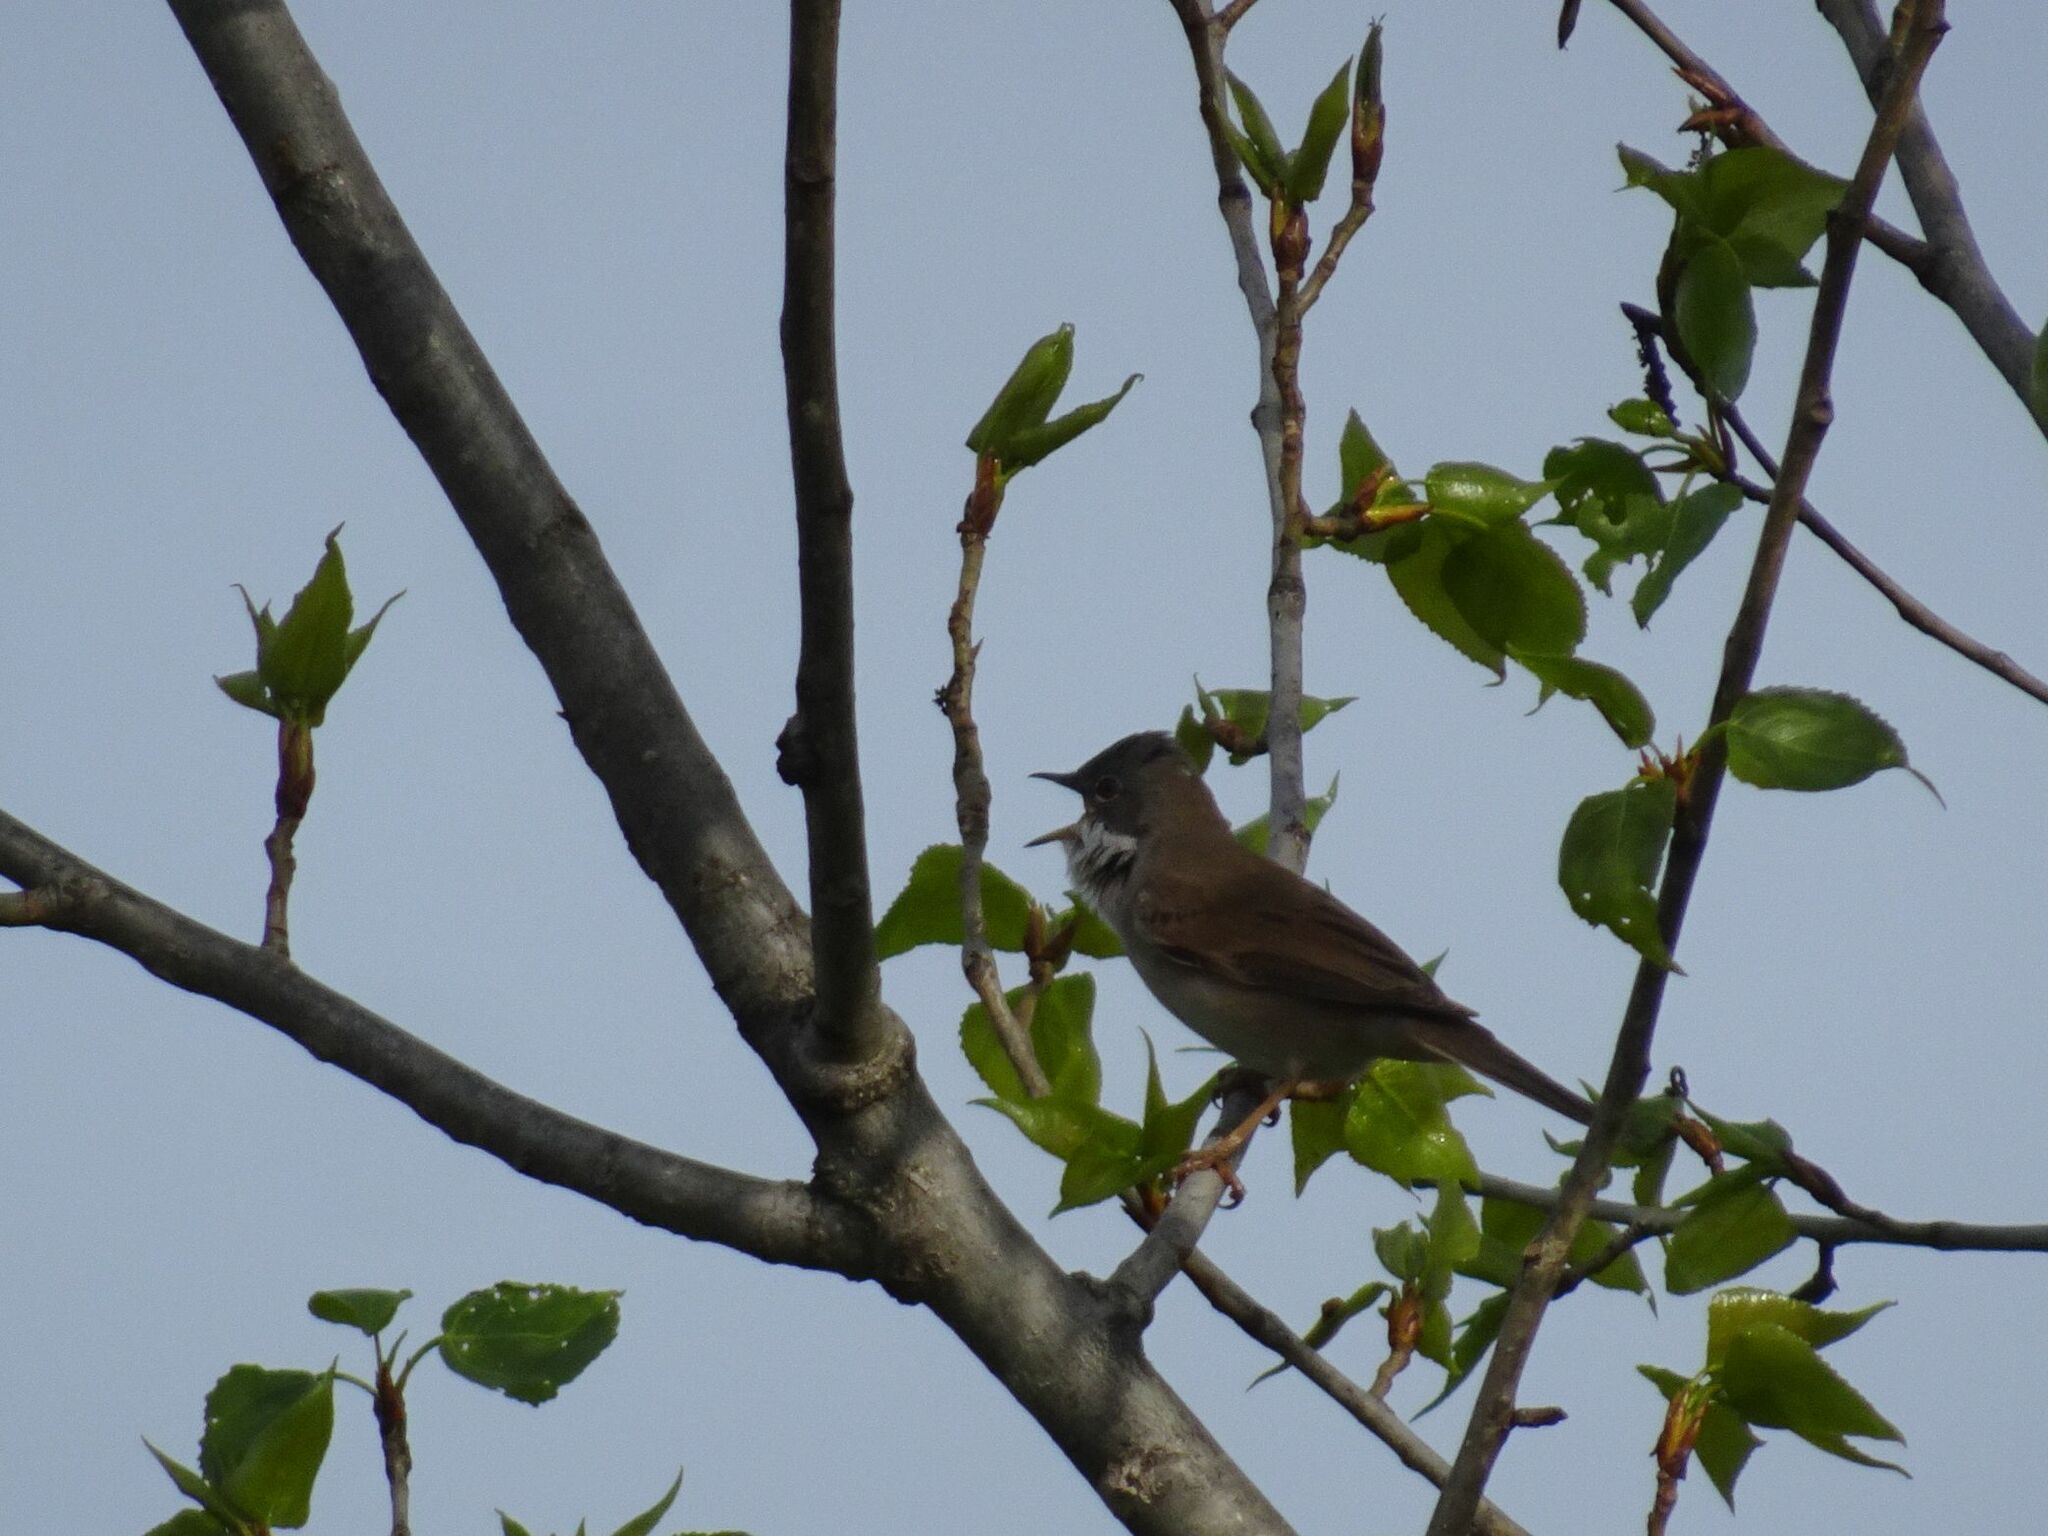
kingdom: Animalia
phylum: Chordata
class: Aves
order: Passeriformes
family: Sylviidae
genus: Sylvia
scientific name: Sylvia communis
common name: Common whitethroat
